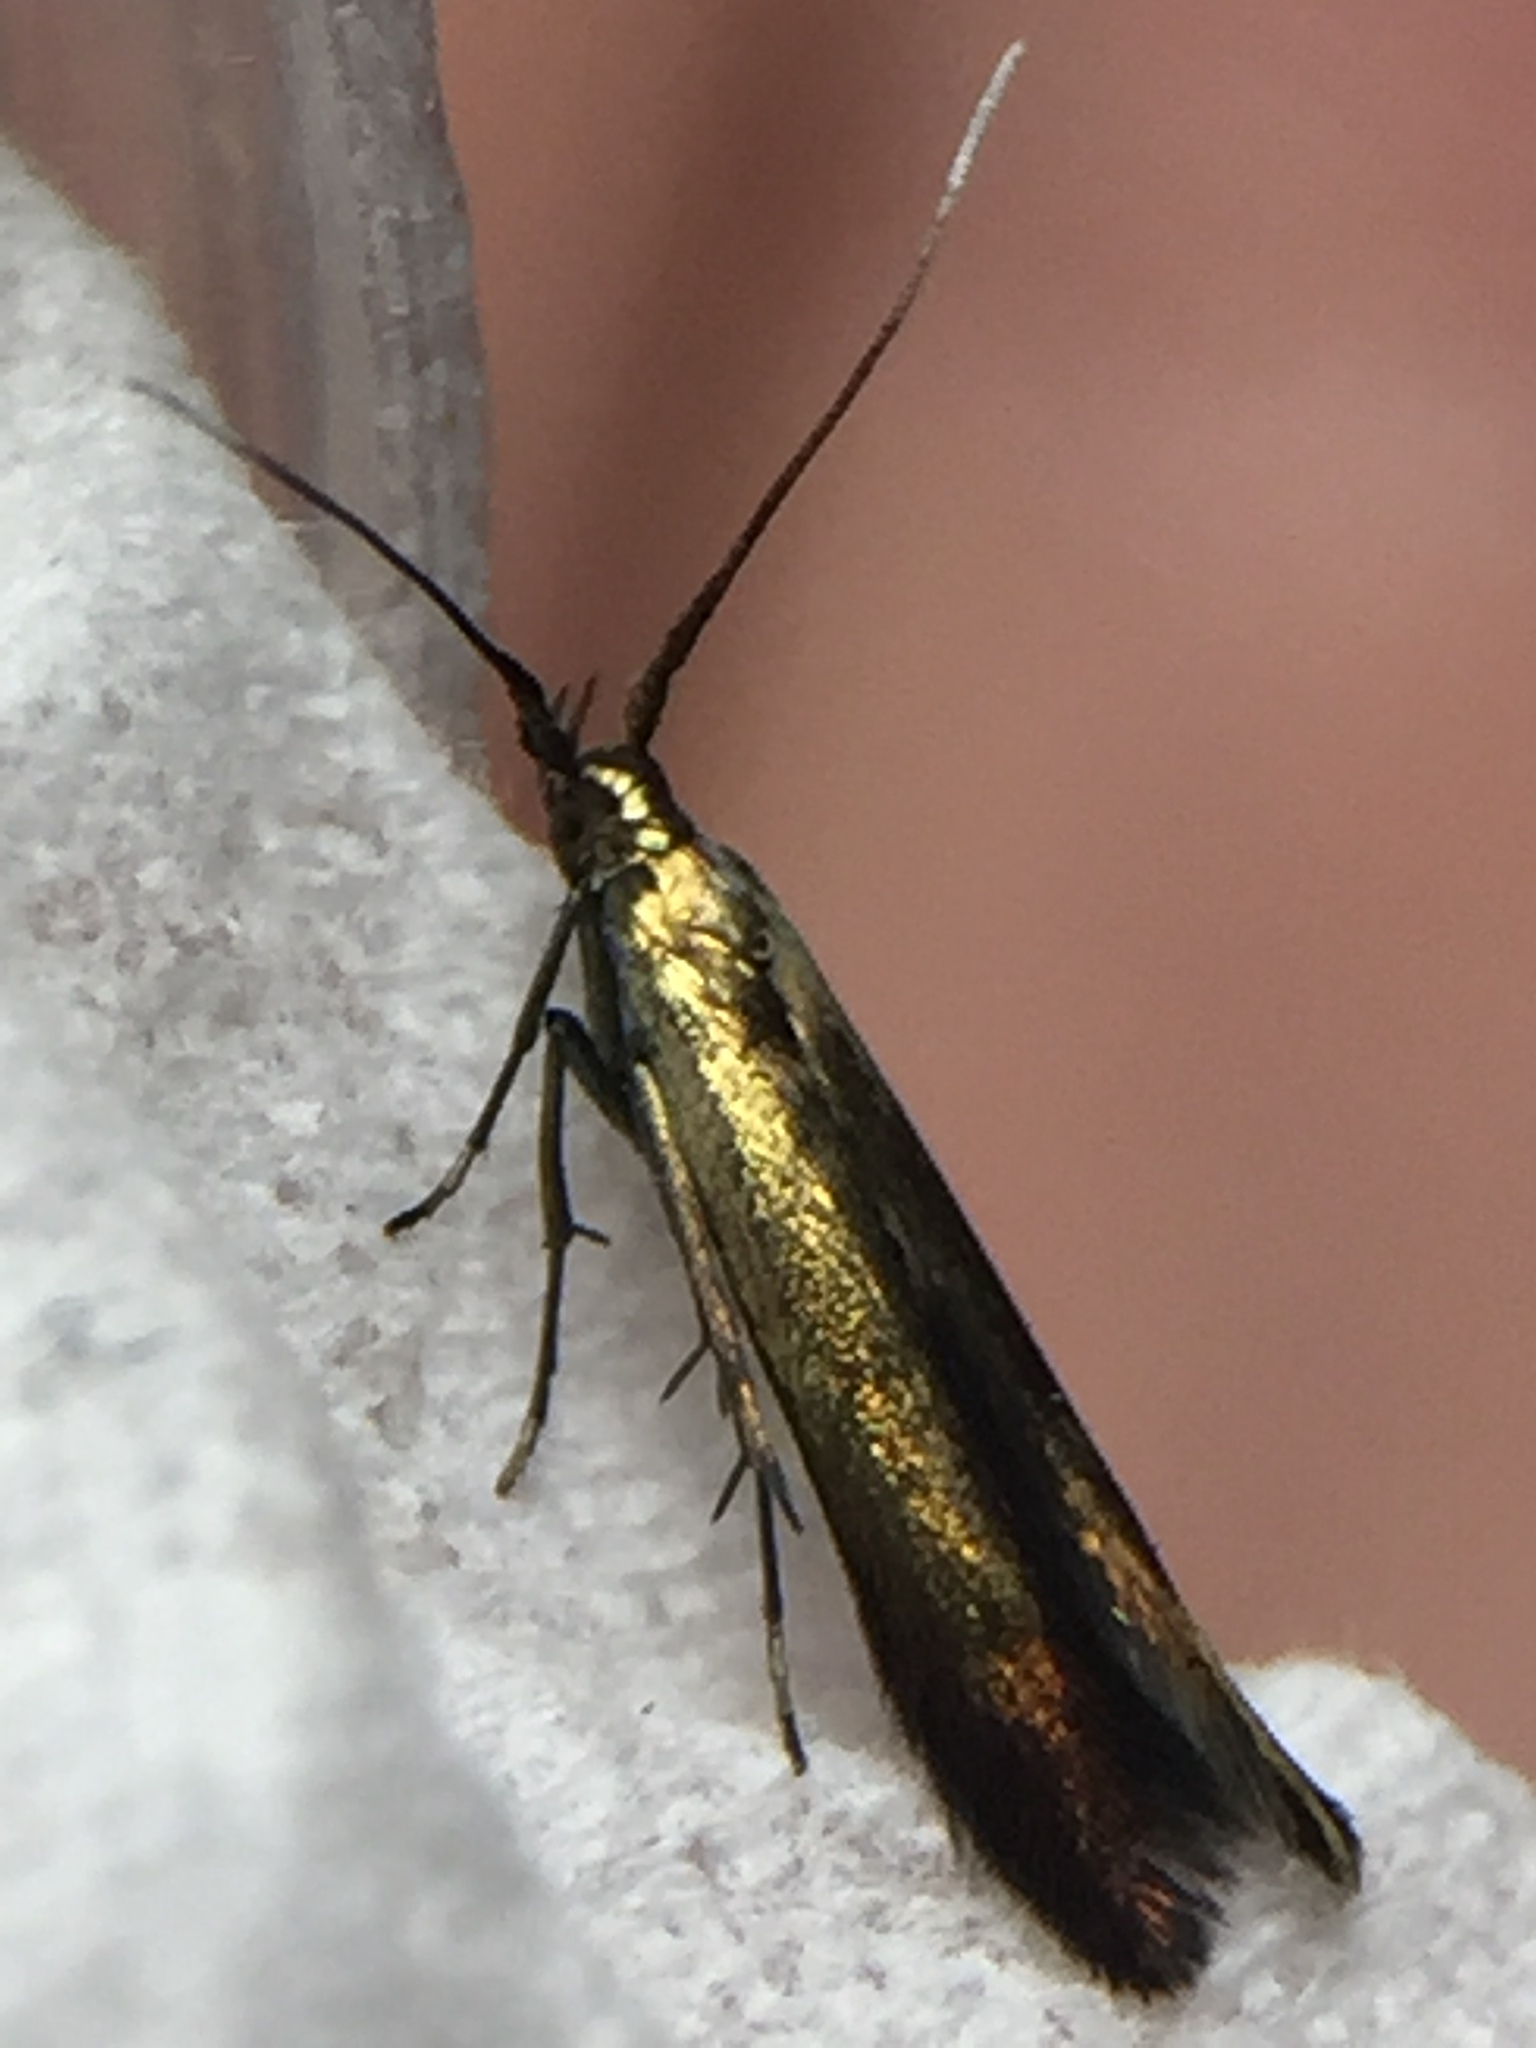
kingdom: Animalia
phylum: Arthropoda
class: Insecta
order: Lepidoptera
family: Coleophoridae
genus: Coleophora
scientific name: Coleophora deauratella
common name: Red-clover case-bearer
